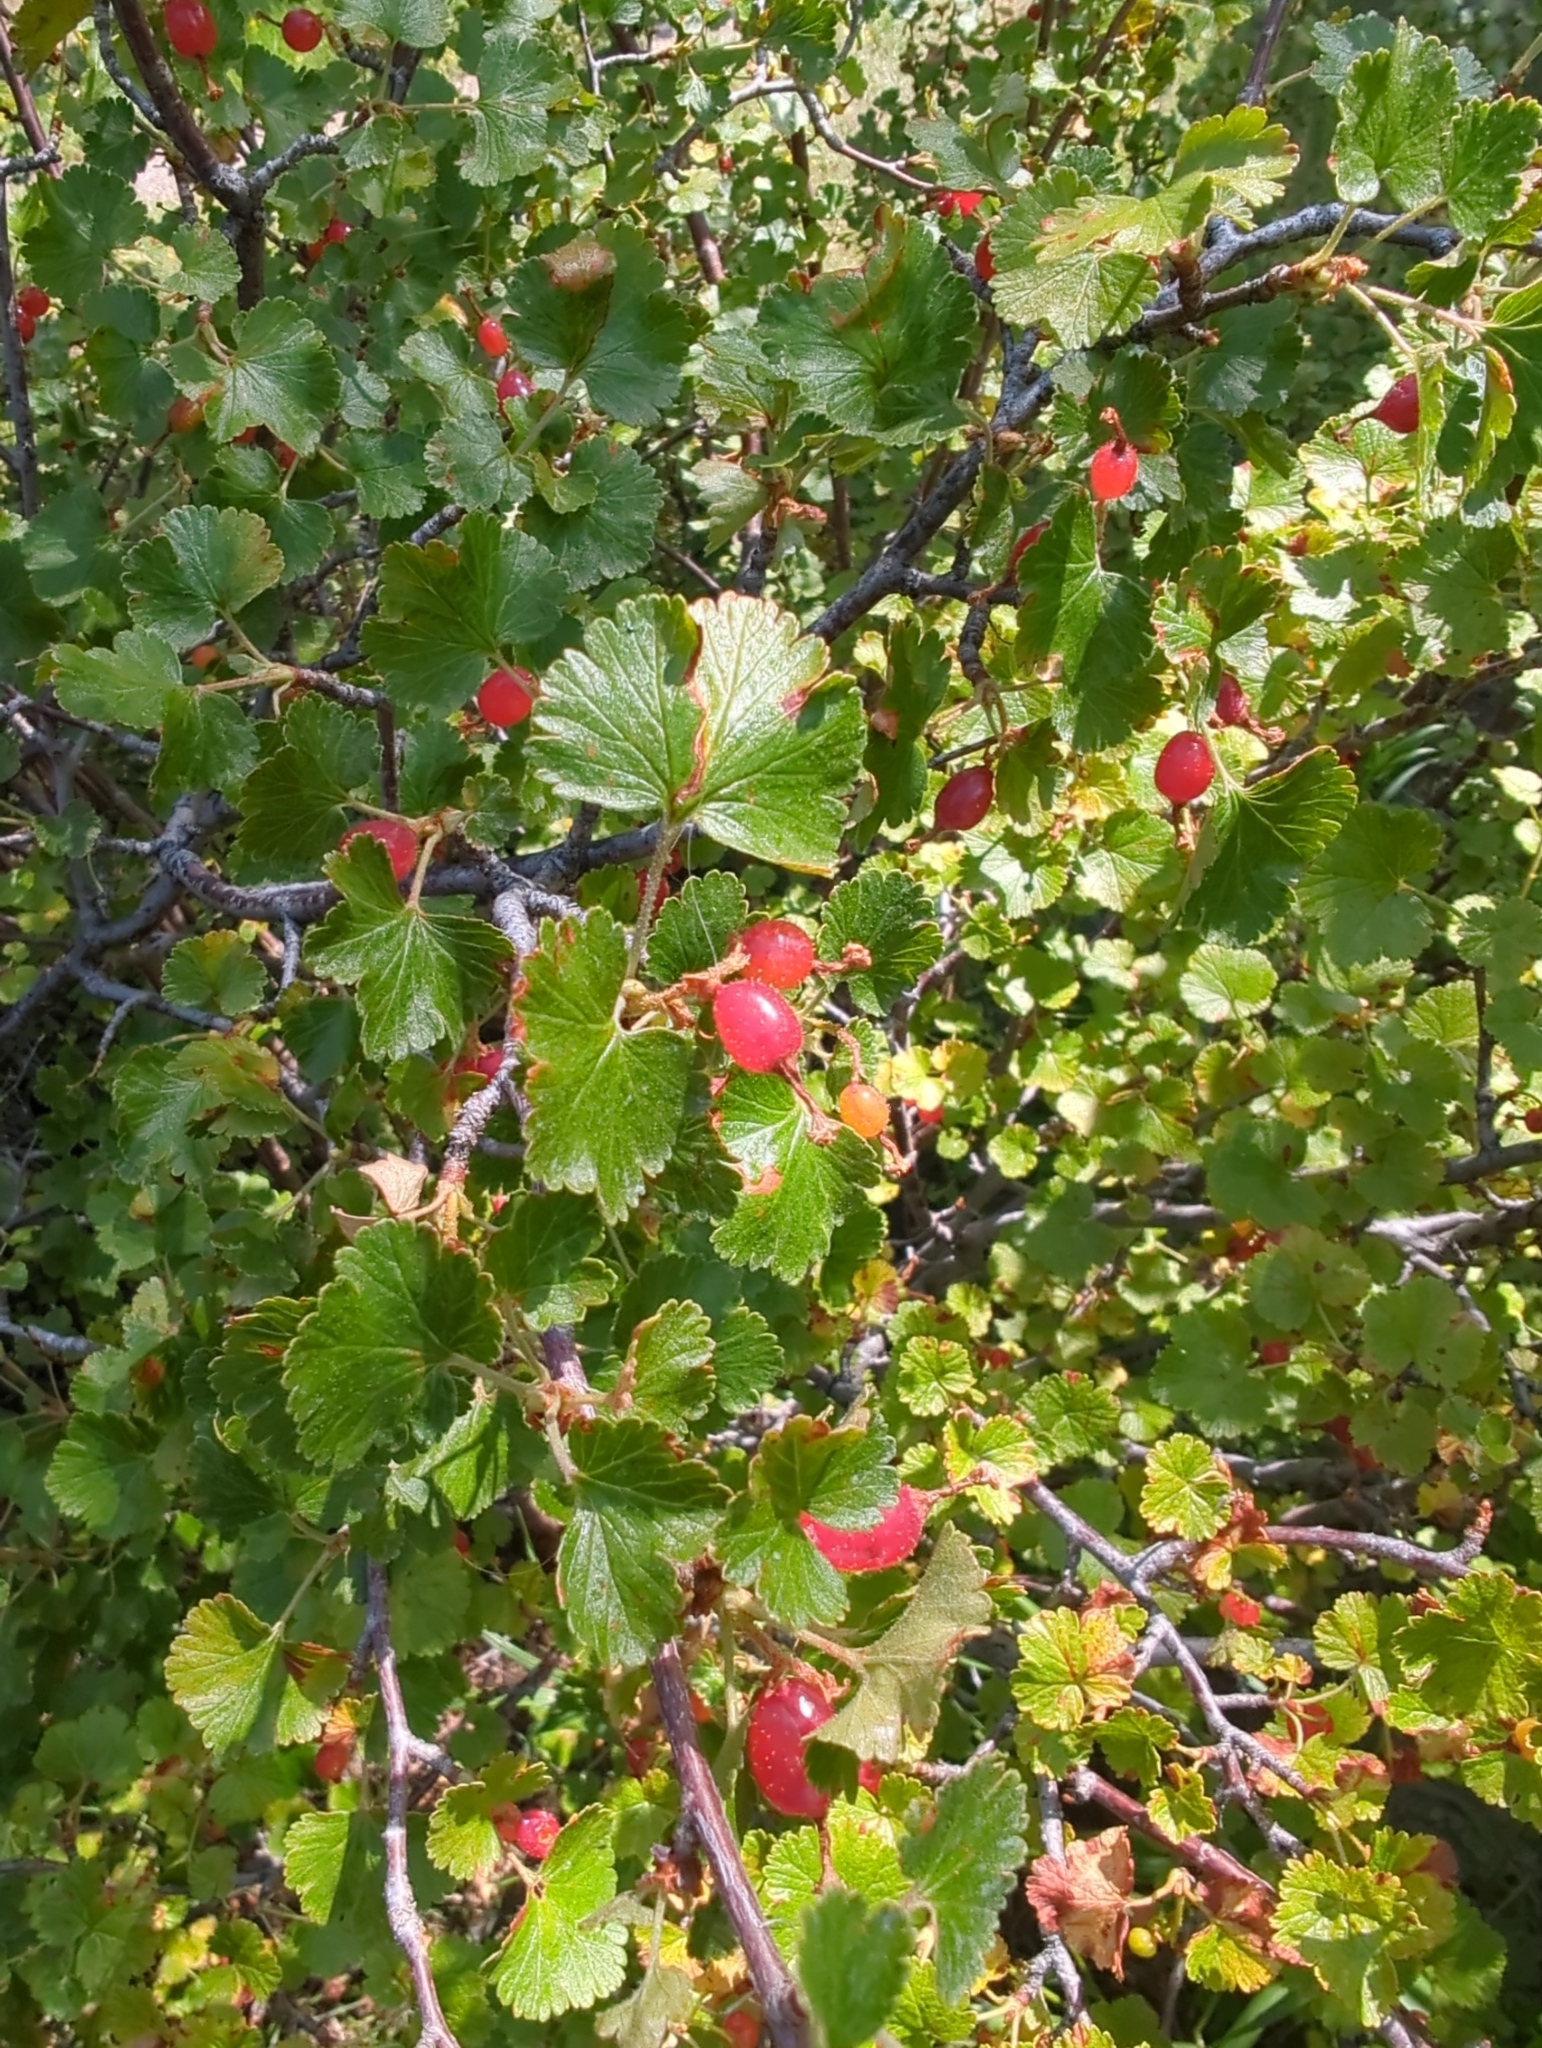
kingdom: Plantae
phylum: Tracheophyta
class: Magnoliopsida
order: Saxifragales
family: Grossulariaceae
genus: Ribes
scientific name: Ribes cereum
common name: Wax currant
